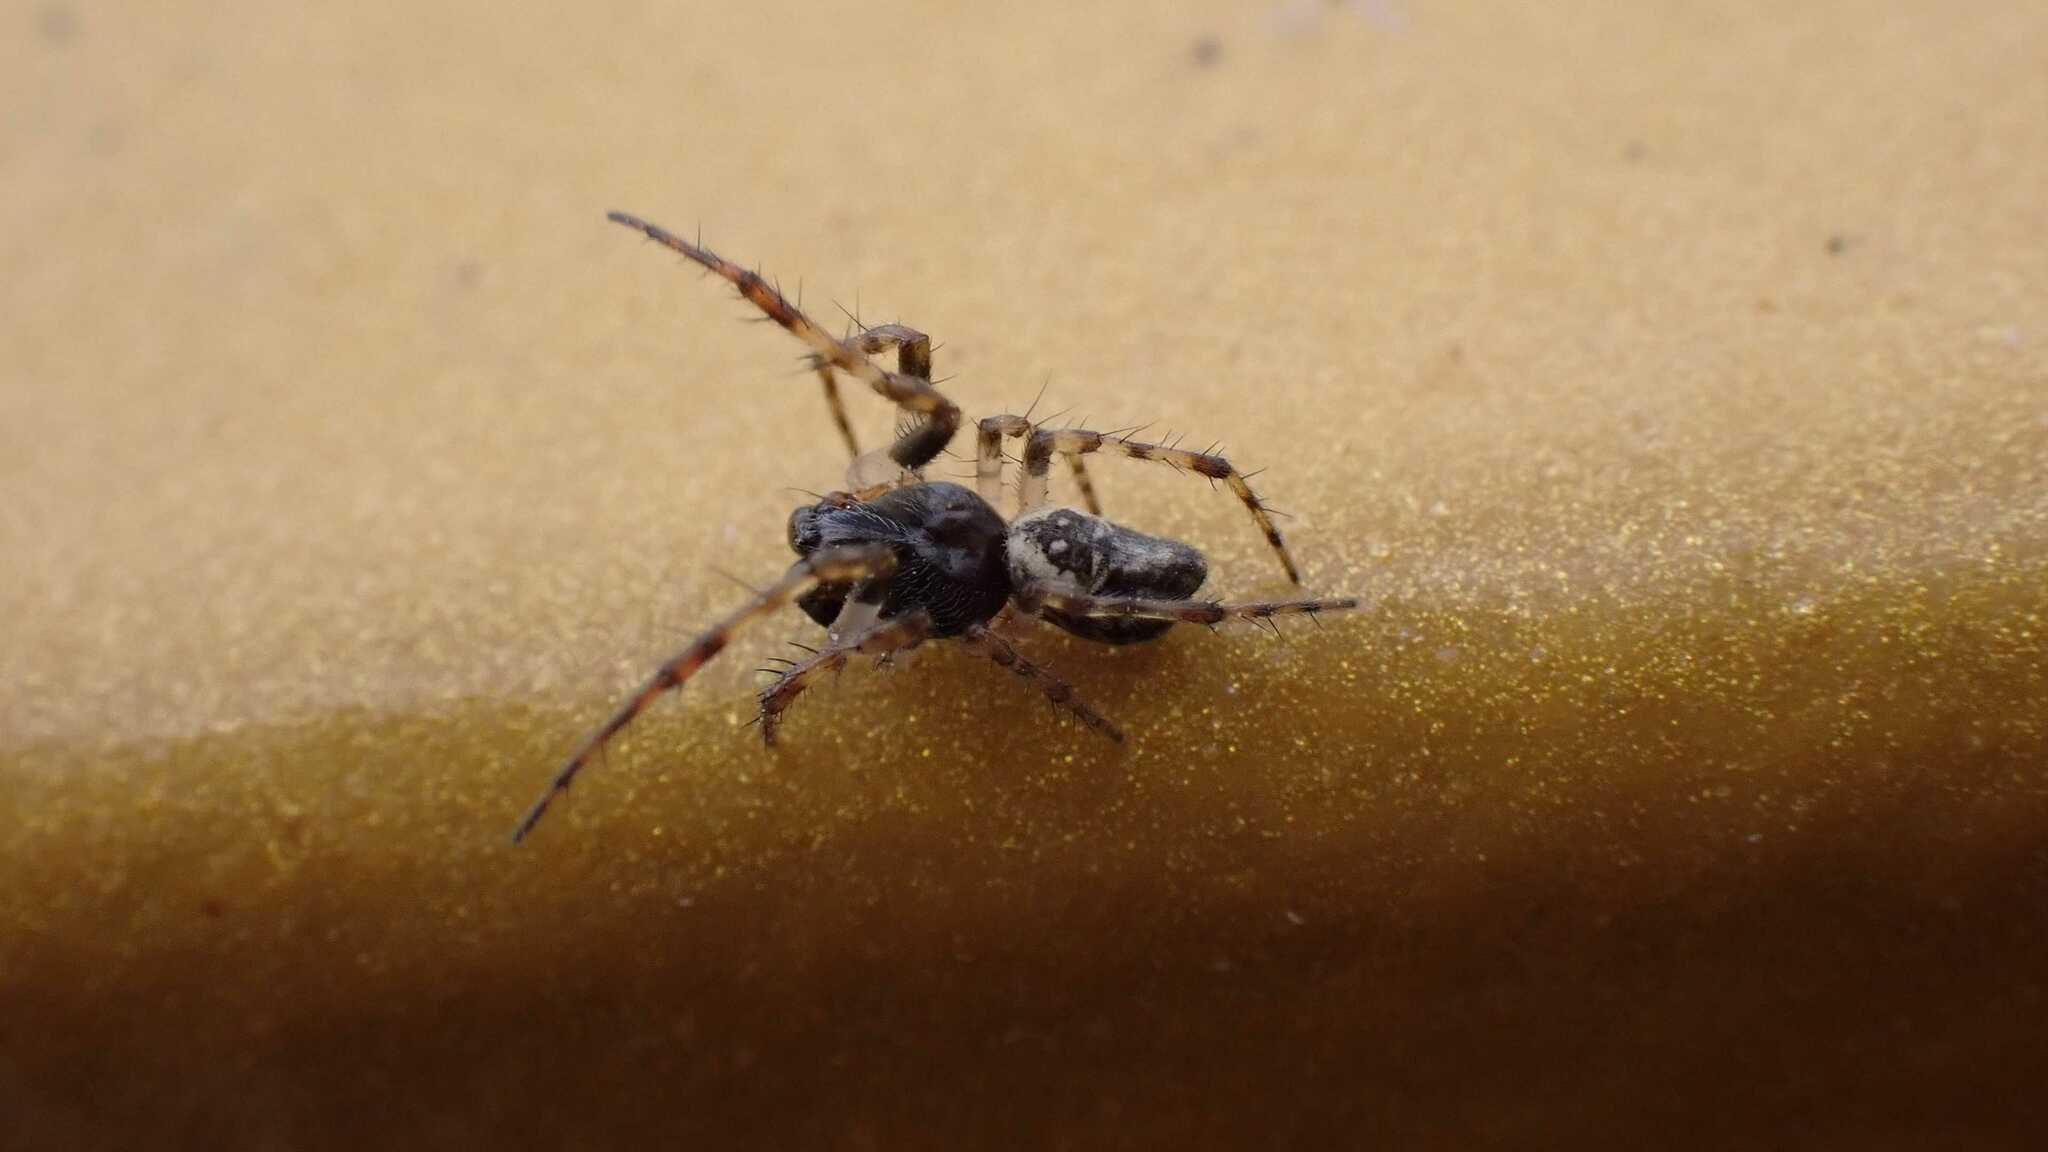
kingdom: Animalia
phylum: Arthropoda
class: Arachnida
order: Araneae
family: Araneidae
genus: Cyclosa
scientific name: Cyclosa conica
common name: Conical trashline orbweaver
